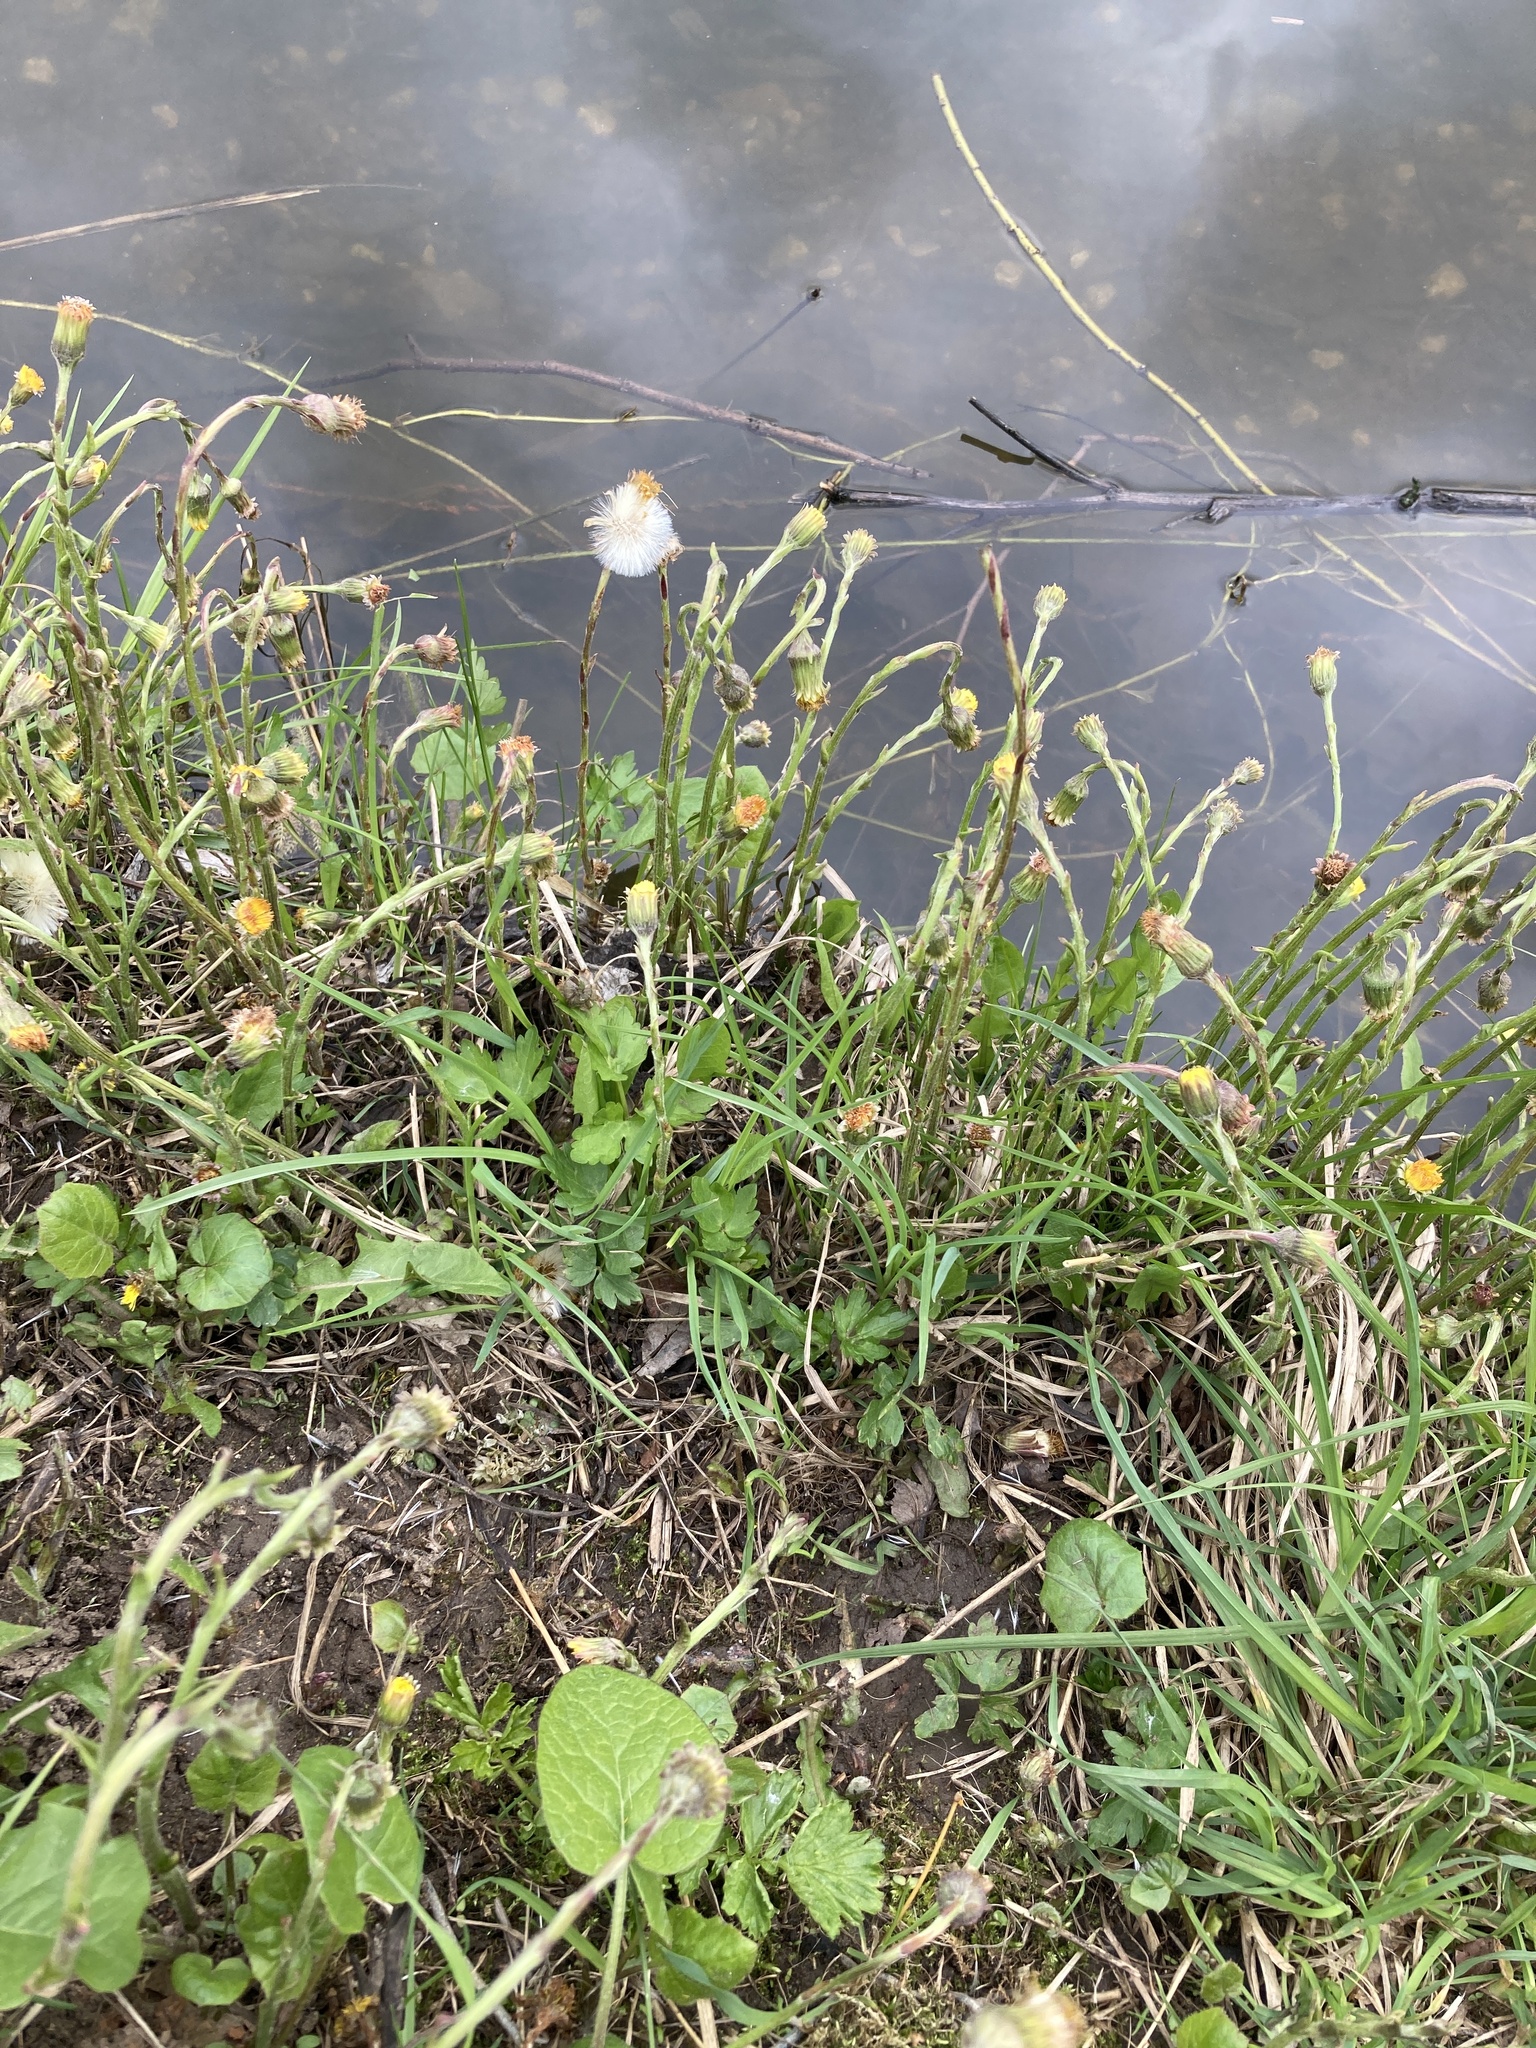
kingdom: Plantae
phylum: Tracheophyta
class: Magnoliopsida
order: Asterales
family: Asteraceae
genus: Tussilago
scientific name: Tussilago farfara
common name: Coltsfoot
